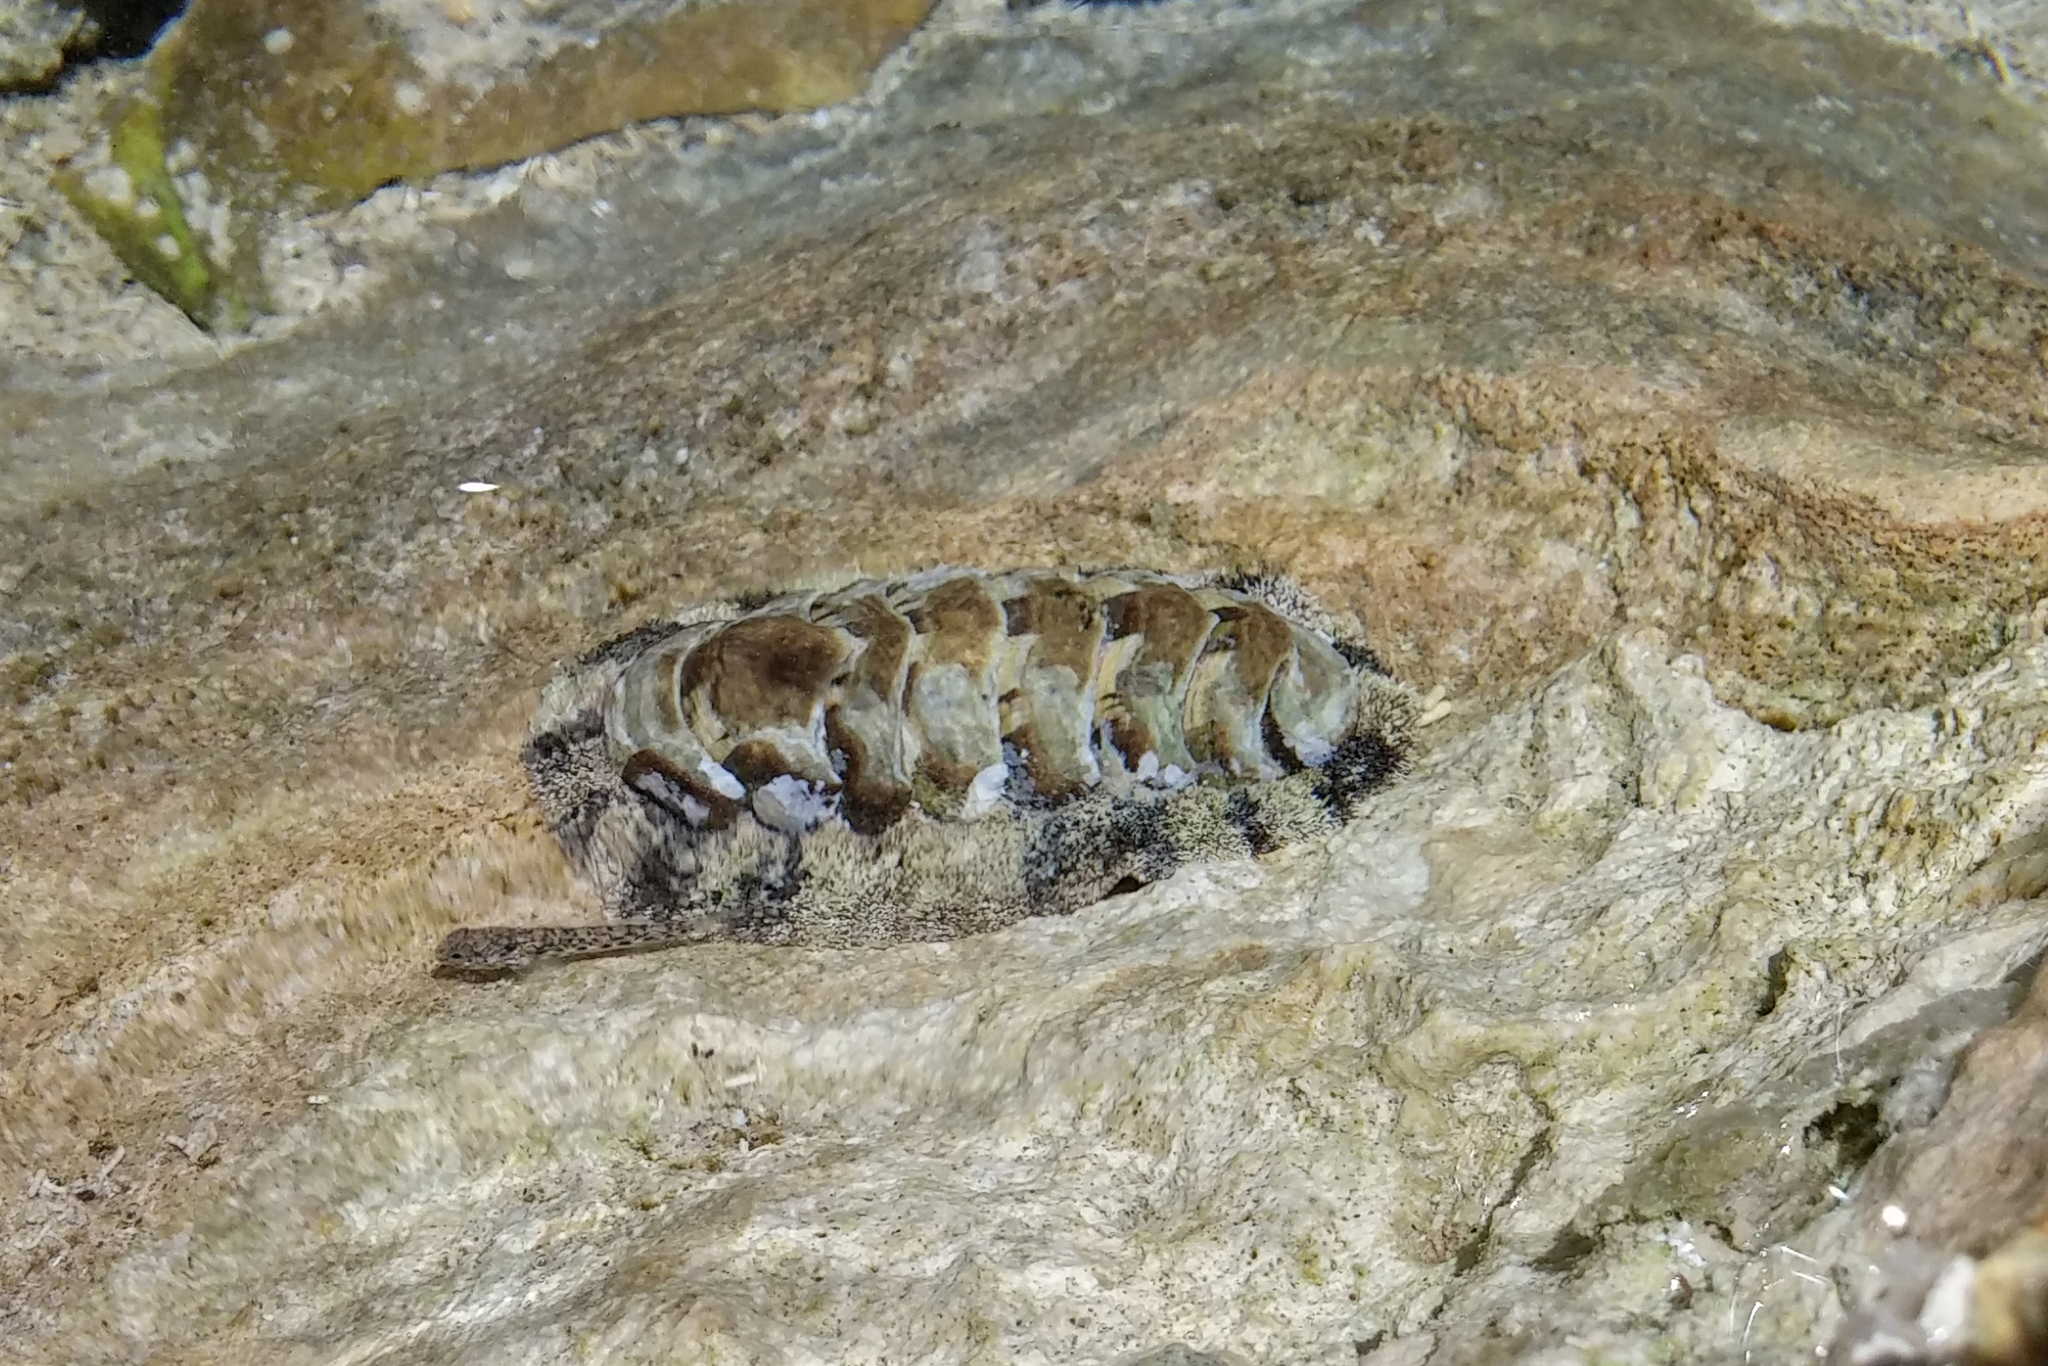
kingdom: Animalia
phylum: Mollusca
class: Polyplacophora
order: Chitonida
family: Chitonidae
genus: Acanthopleura
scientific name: Acanthopleura granulata
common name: West indian fuzzy chiton
